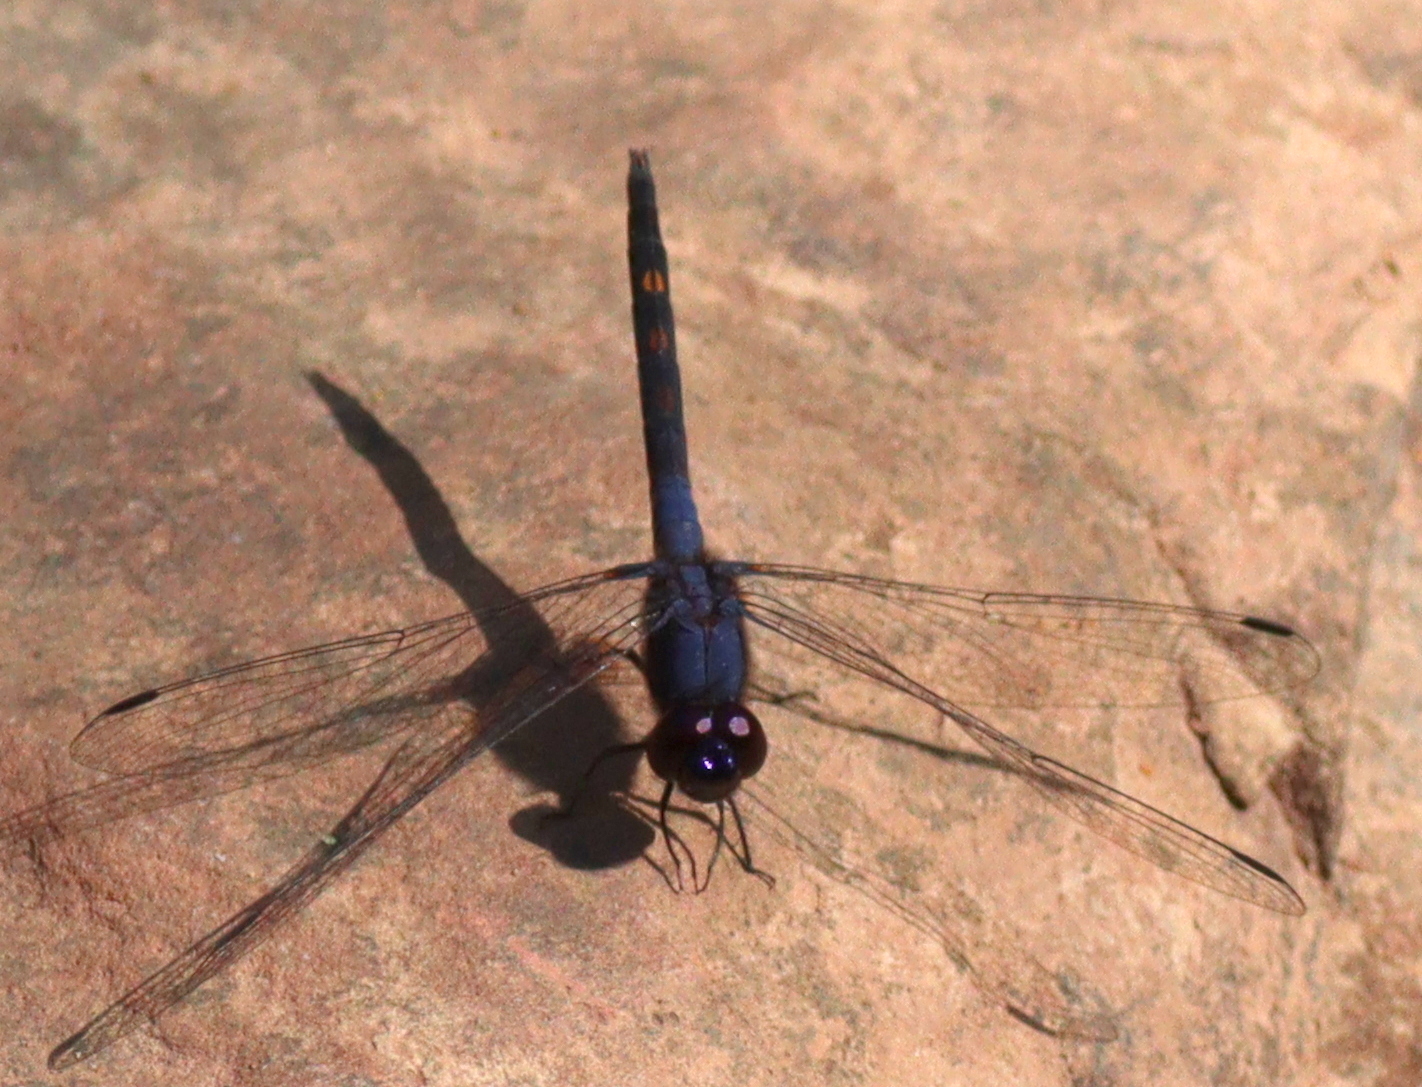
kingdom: Animalia
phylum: Arthropoda
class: Insecta
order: Odonata
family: Libellulidae
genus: Trithemis
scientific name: Trithemis festiva
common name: Indigo dropwing
